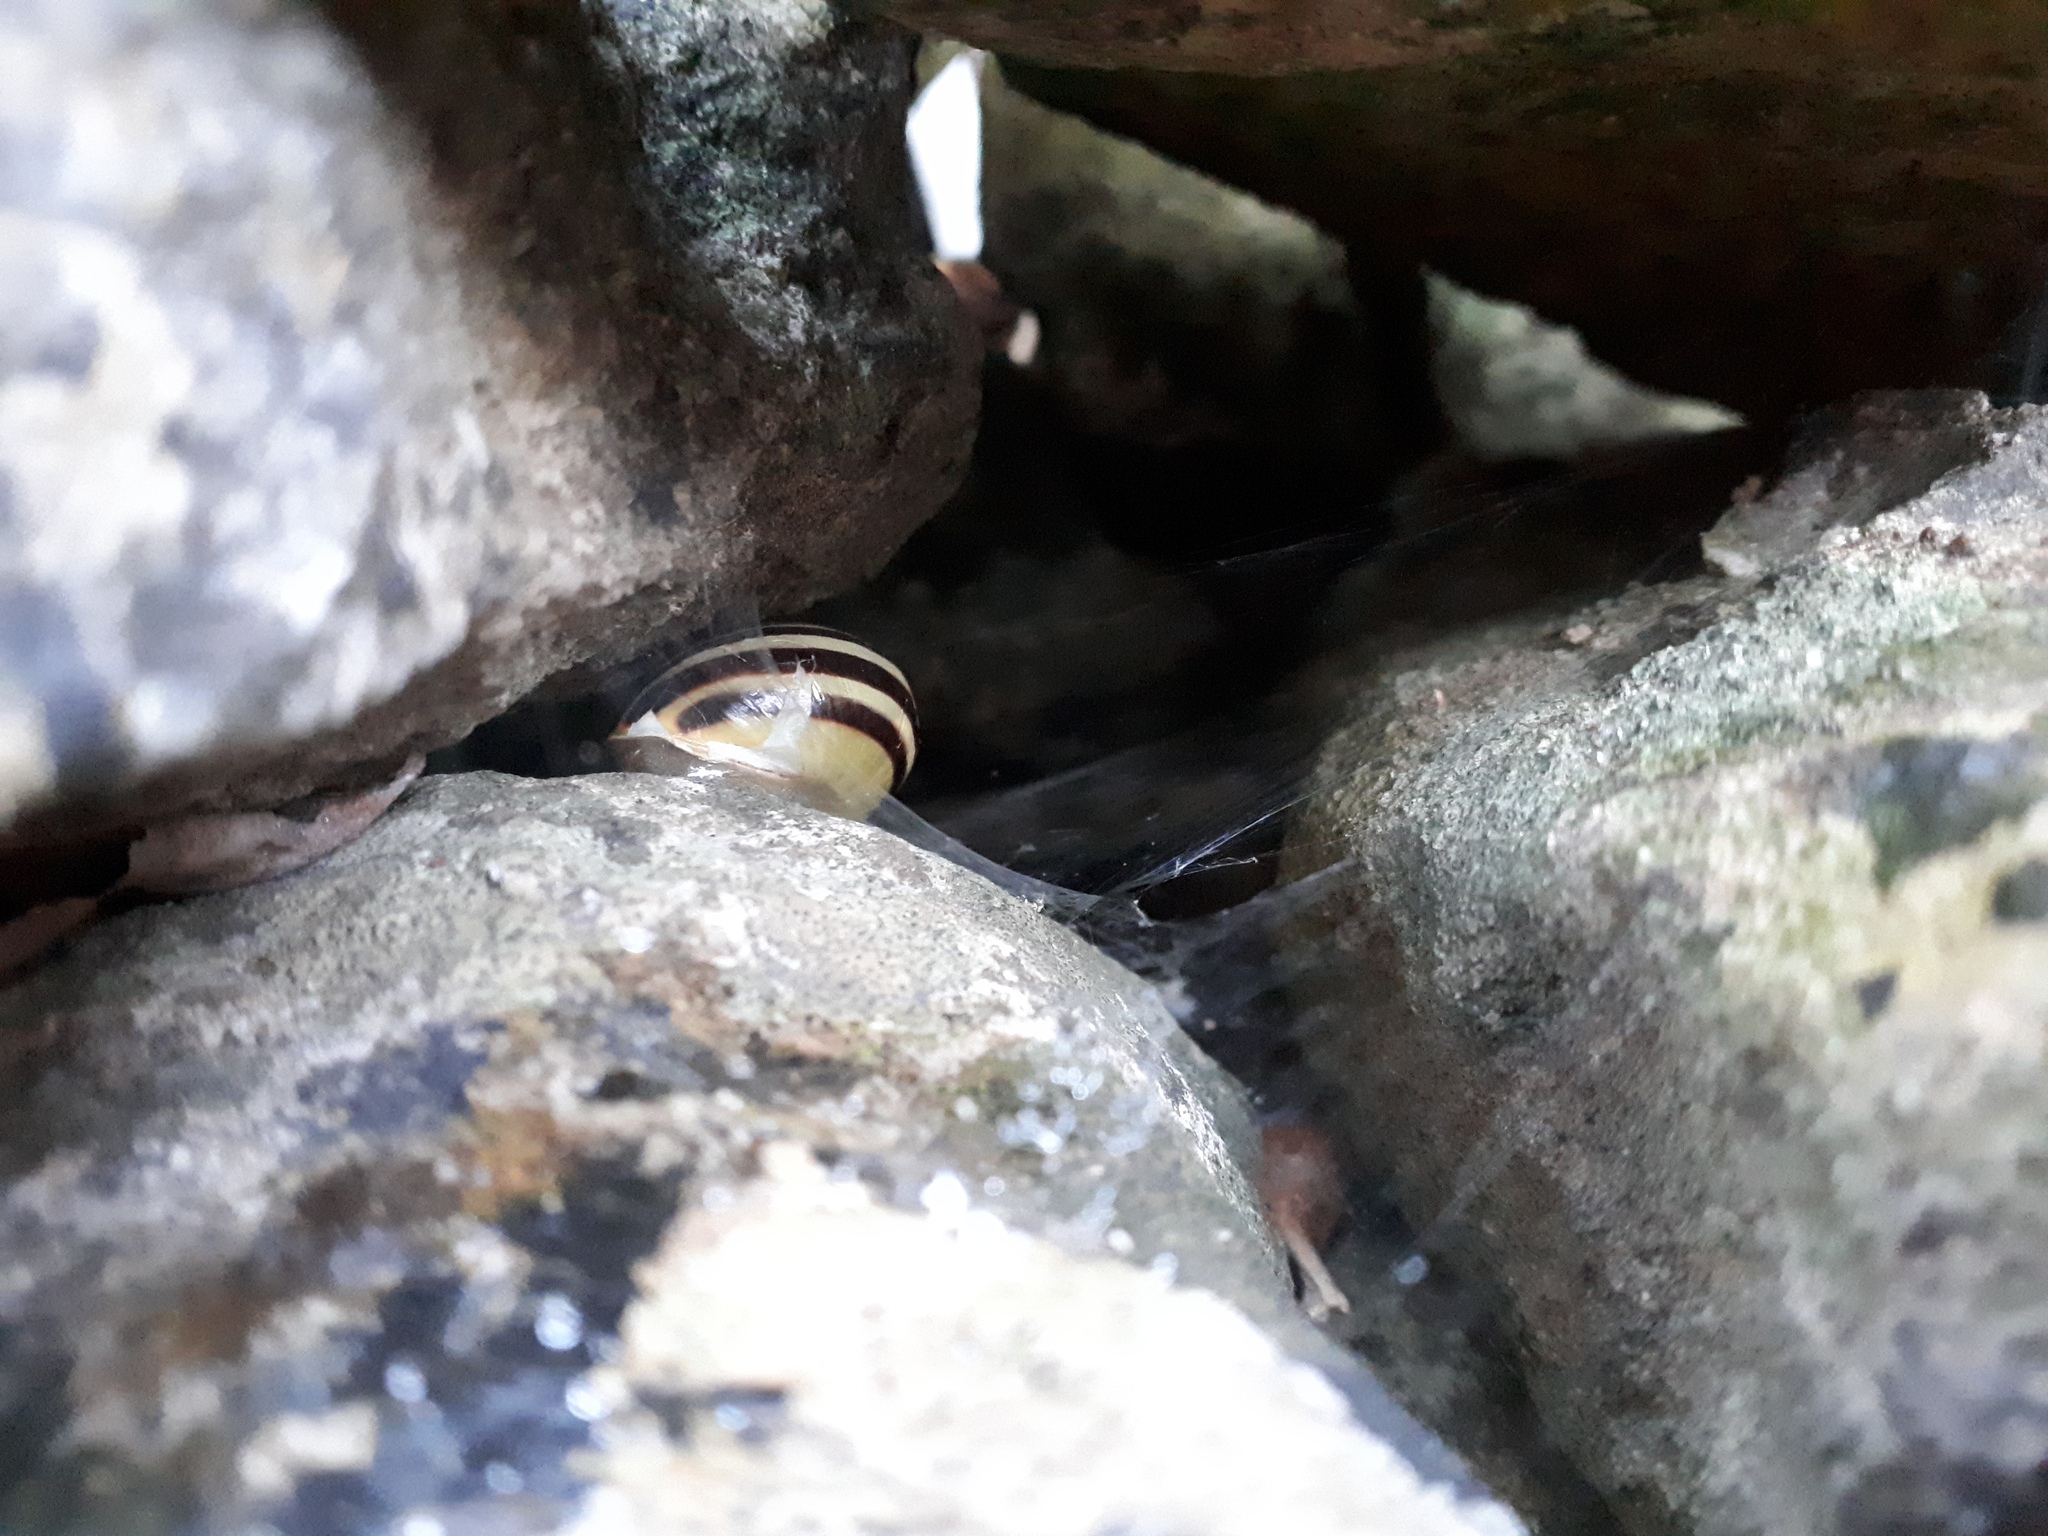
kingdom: Animalia
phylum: Mollusca
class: Gastropoda
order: Stylommatophora
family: Helicidae
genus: Cepaea
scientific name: Cepaea hortensis
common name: White-lip gardensnail
